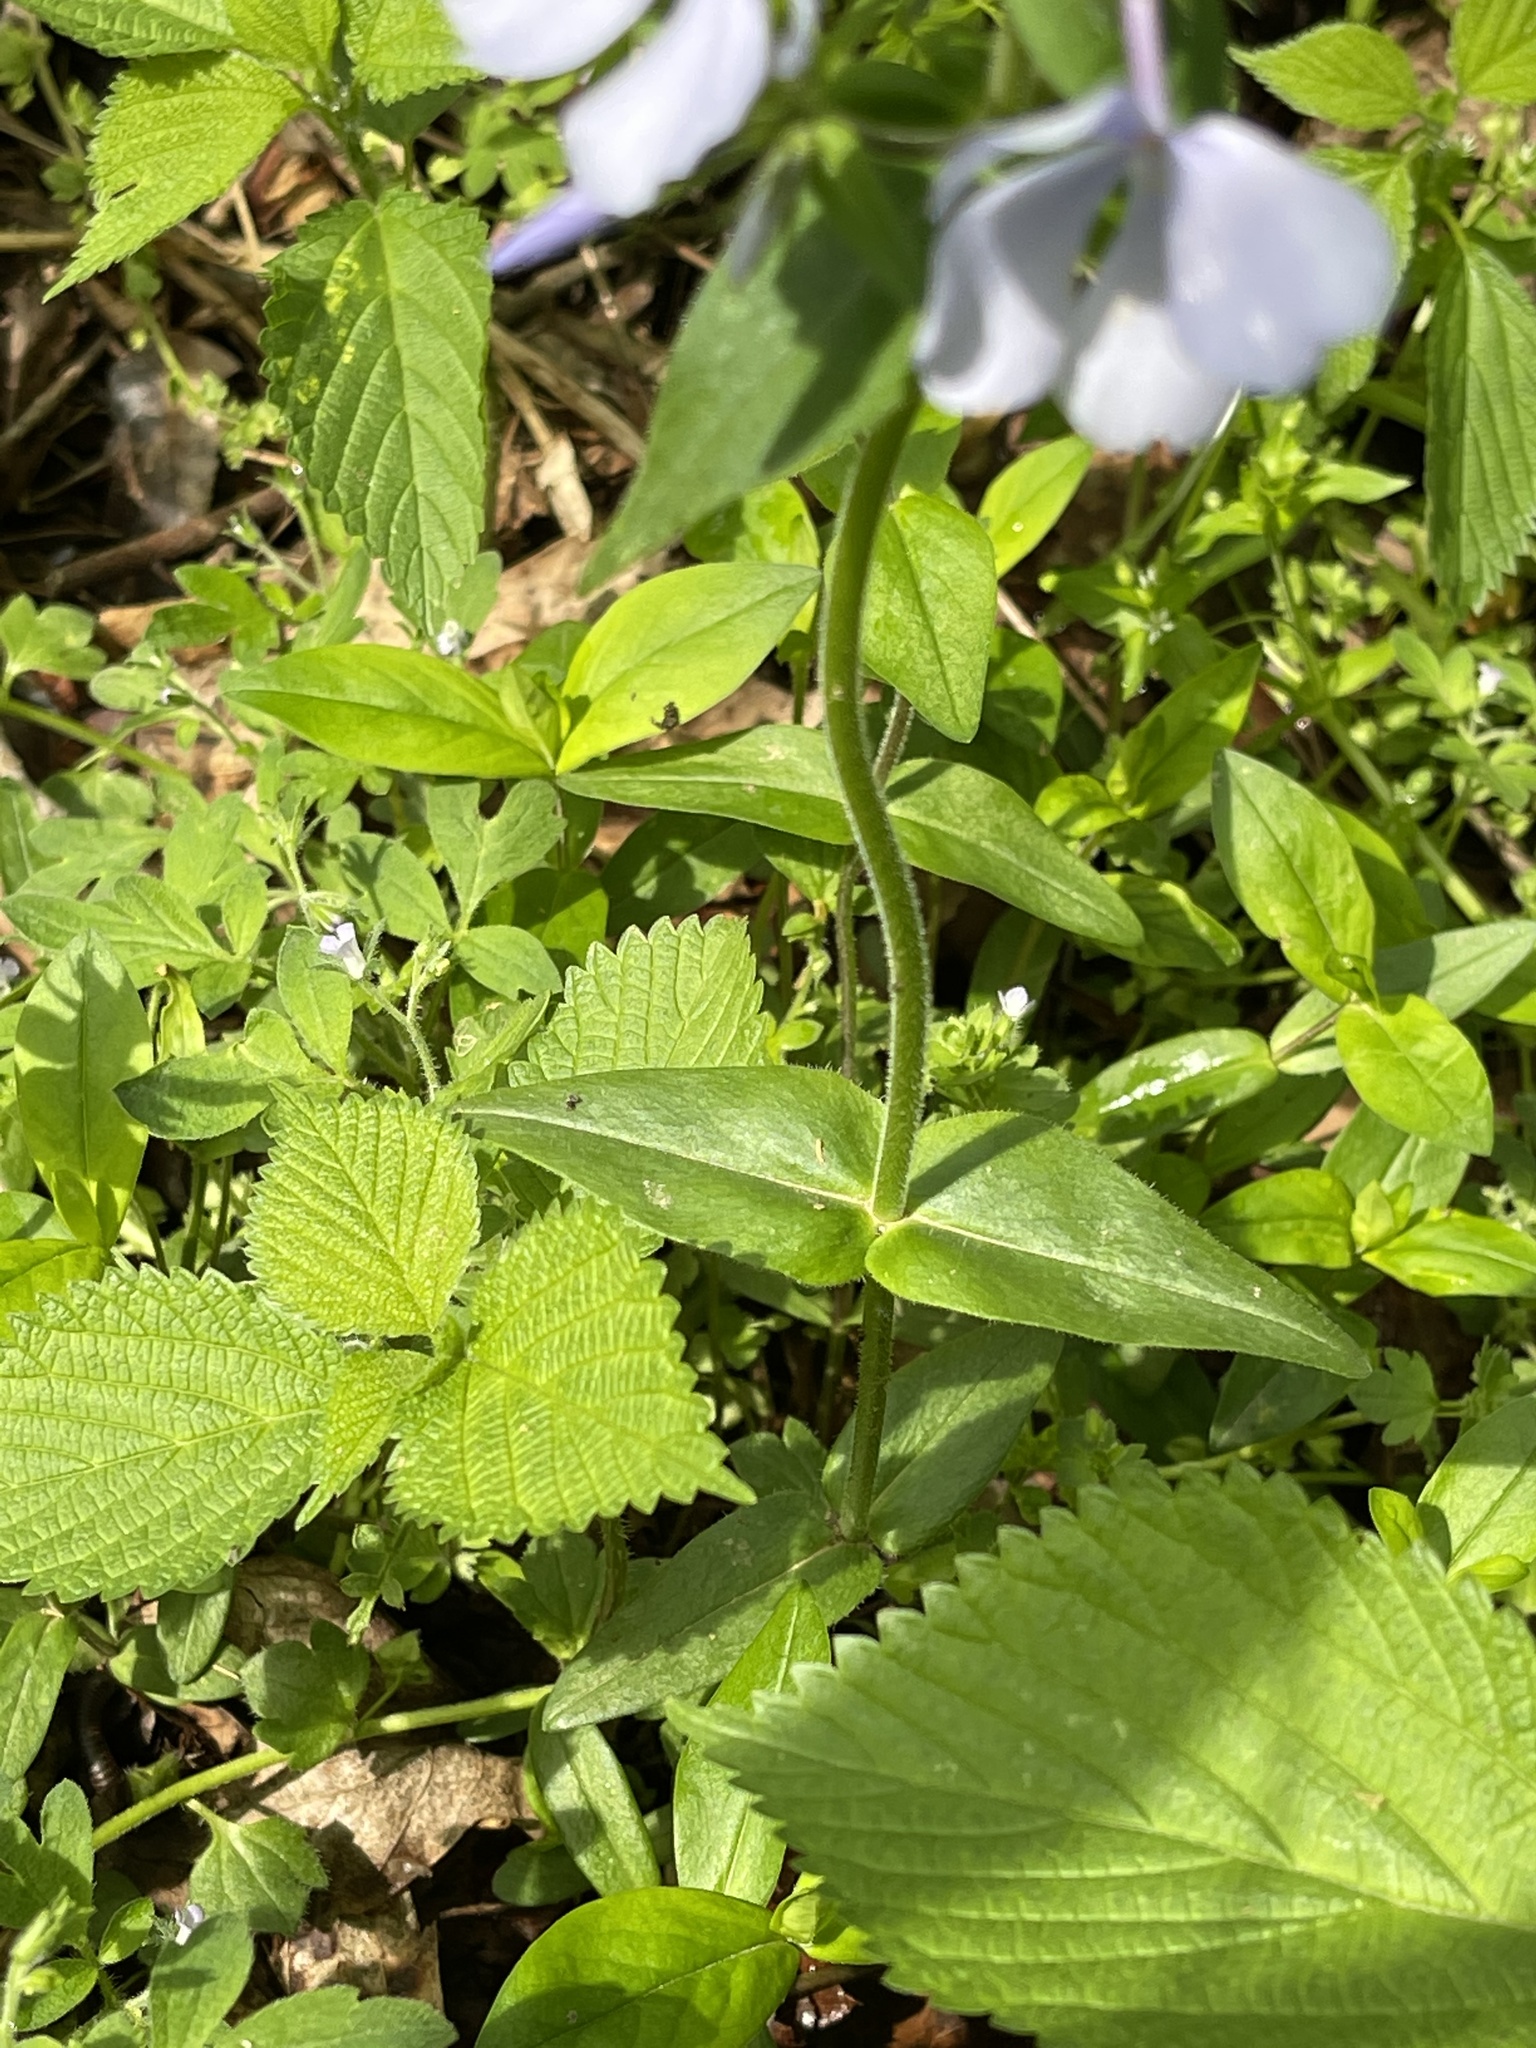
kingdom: Plantae
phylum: Tracheophyta
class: Magnoliopsida
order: Ericales
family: Polemoniaceae
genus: Phlox
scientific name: Phlox divaricata
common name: Blue phlox
